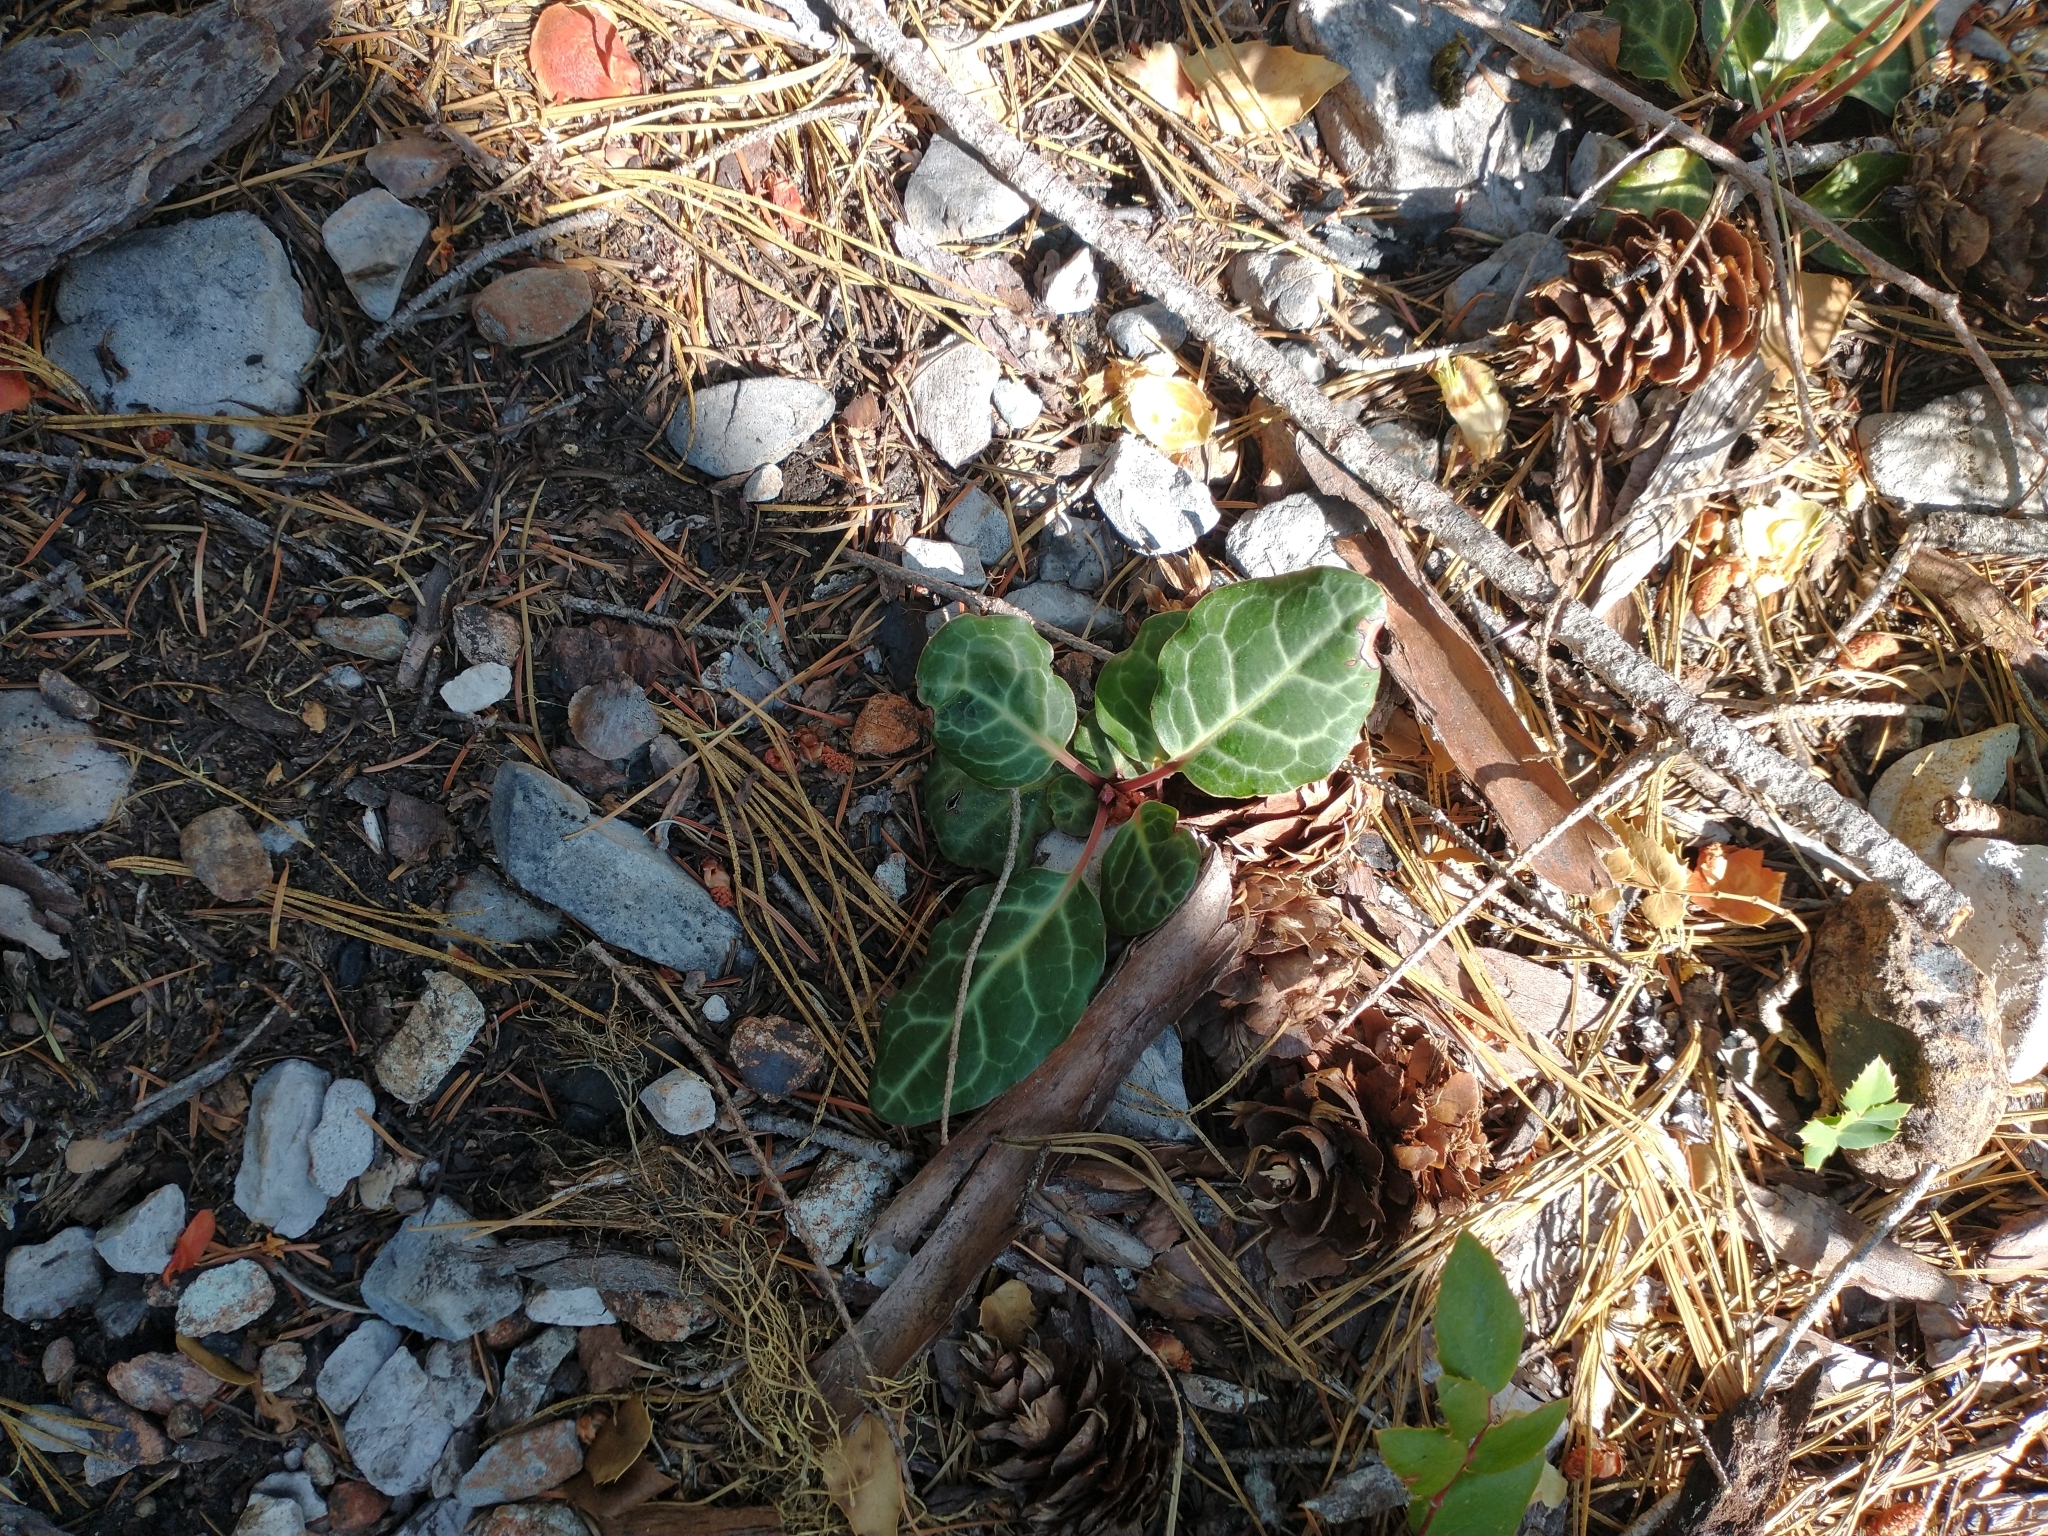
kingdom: Plantae
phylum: Tracheophyta
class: Magnoliopsida
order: Ericales
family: Ericaceae
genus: Pyrola
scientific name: Pyrola picta
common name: White-vein wintergreen
